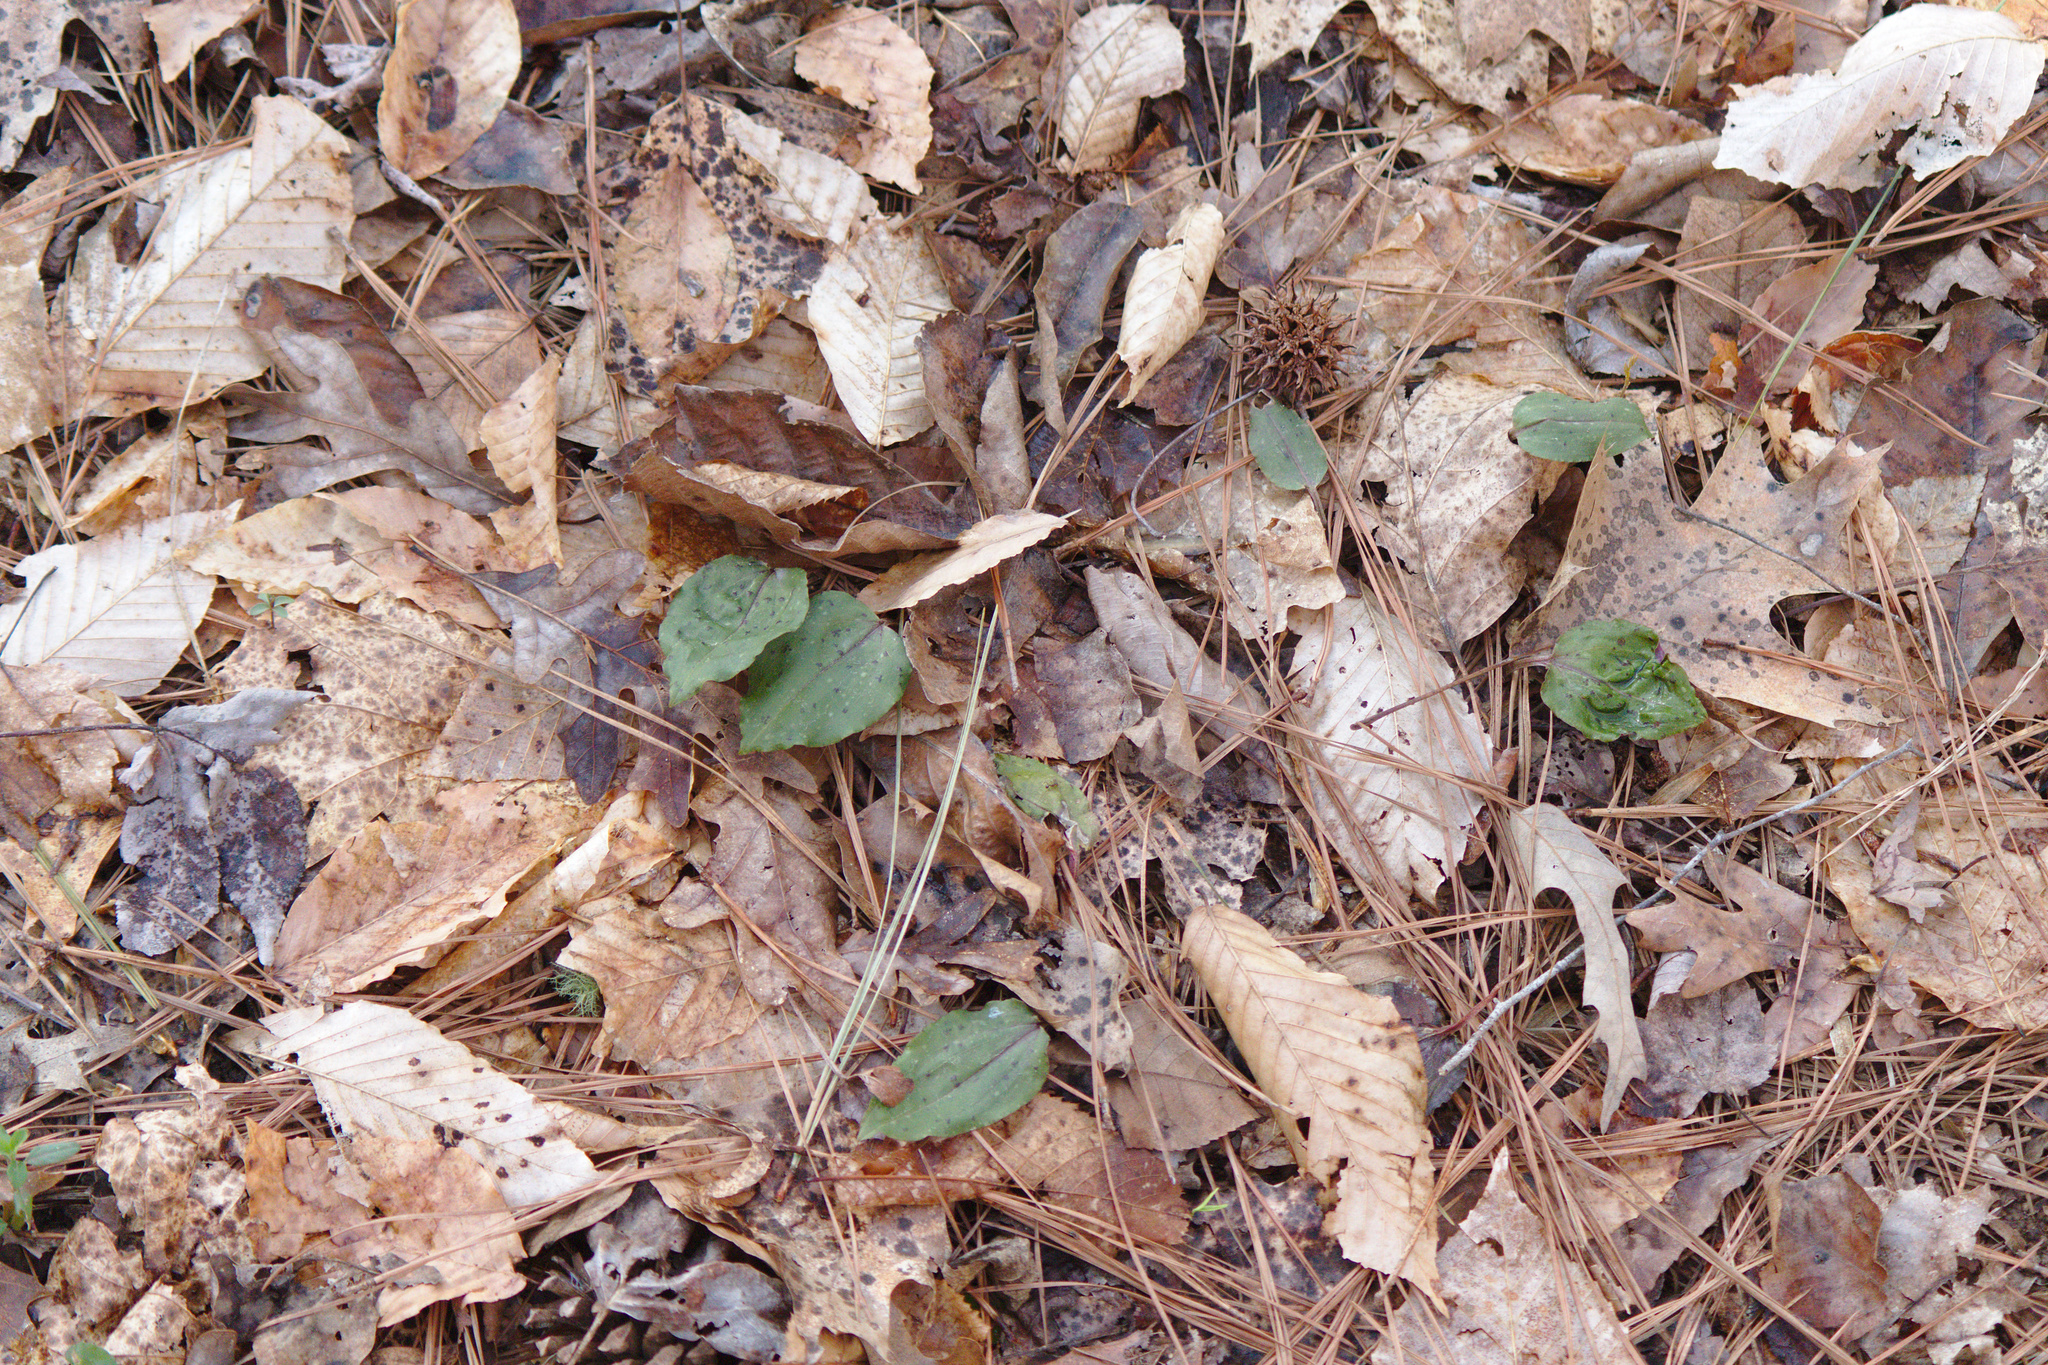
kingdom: Plantae
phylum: Tracheophyta
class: Liliopsida
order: Asparagales
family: Orchidaceae
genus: Tipularia
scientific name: Tipularia discolor
